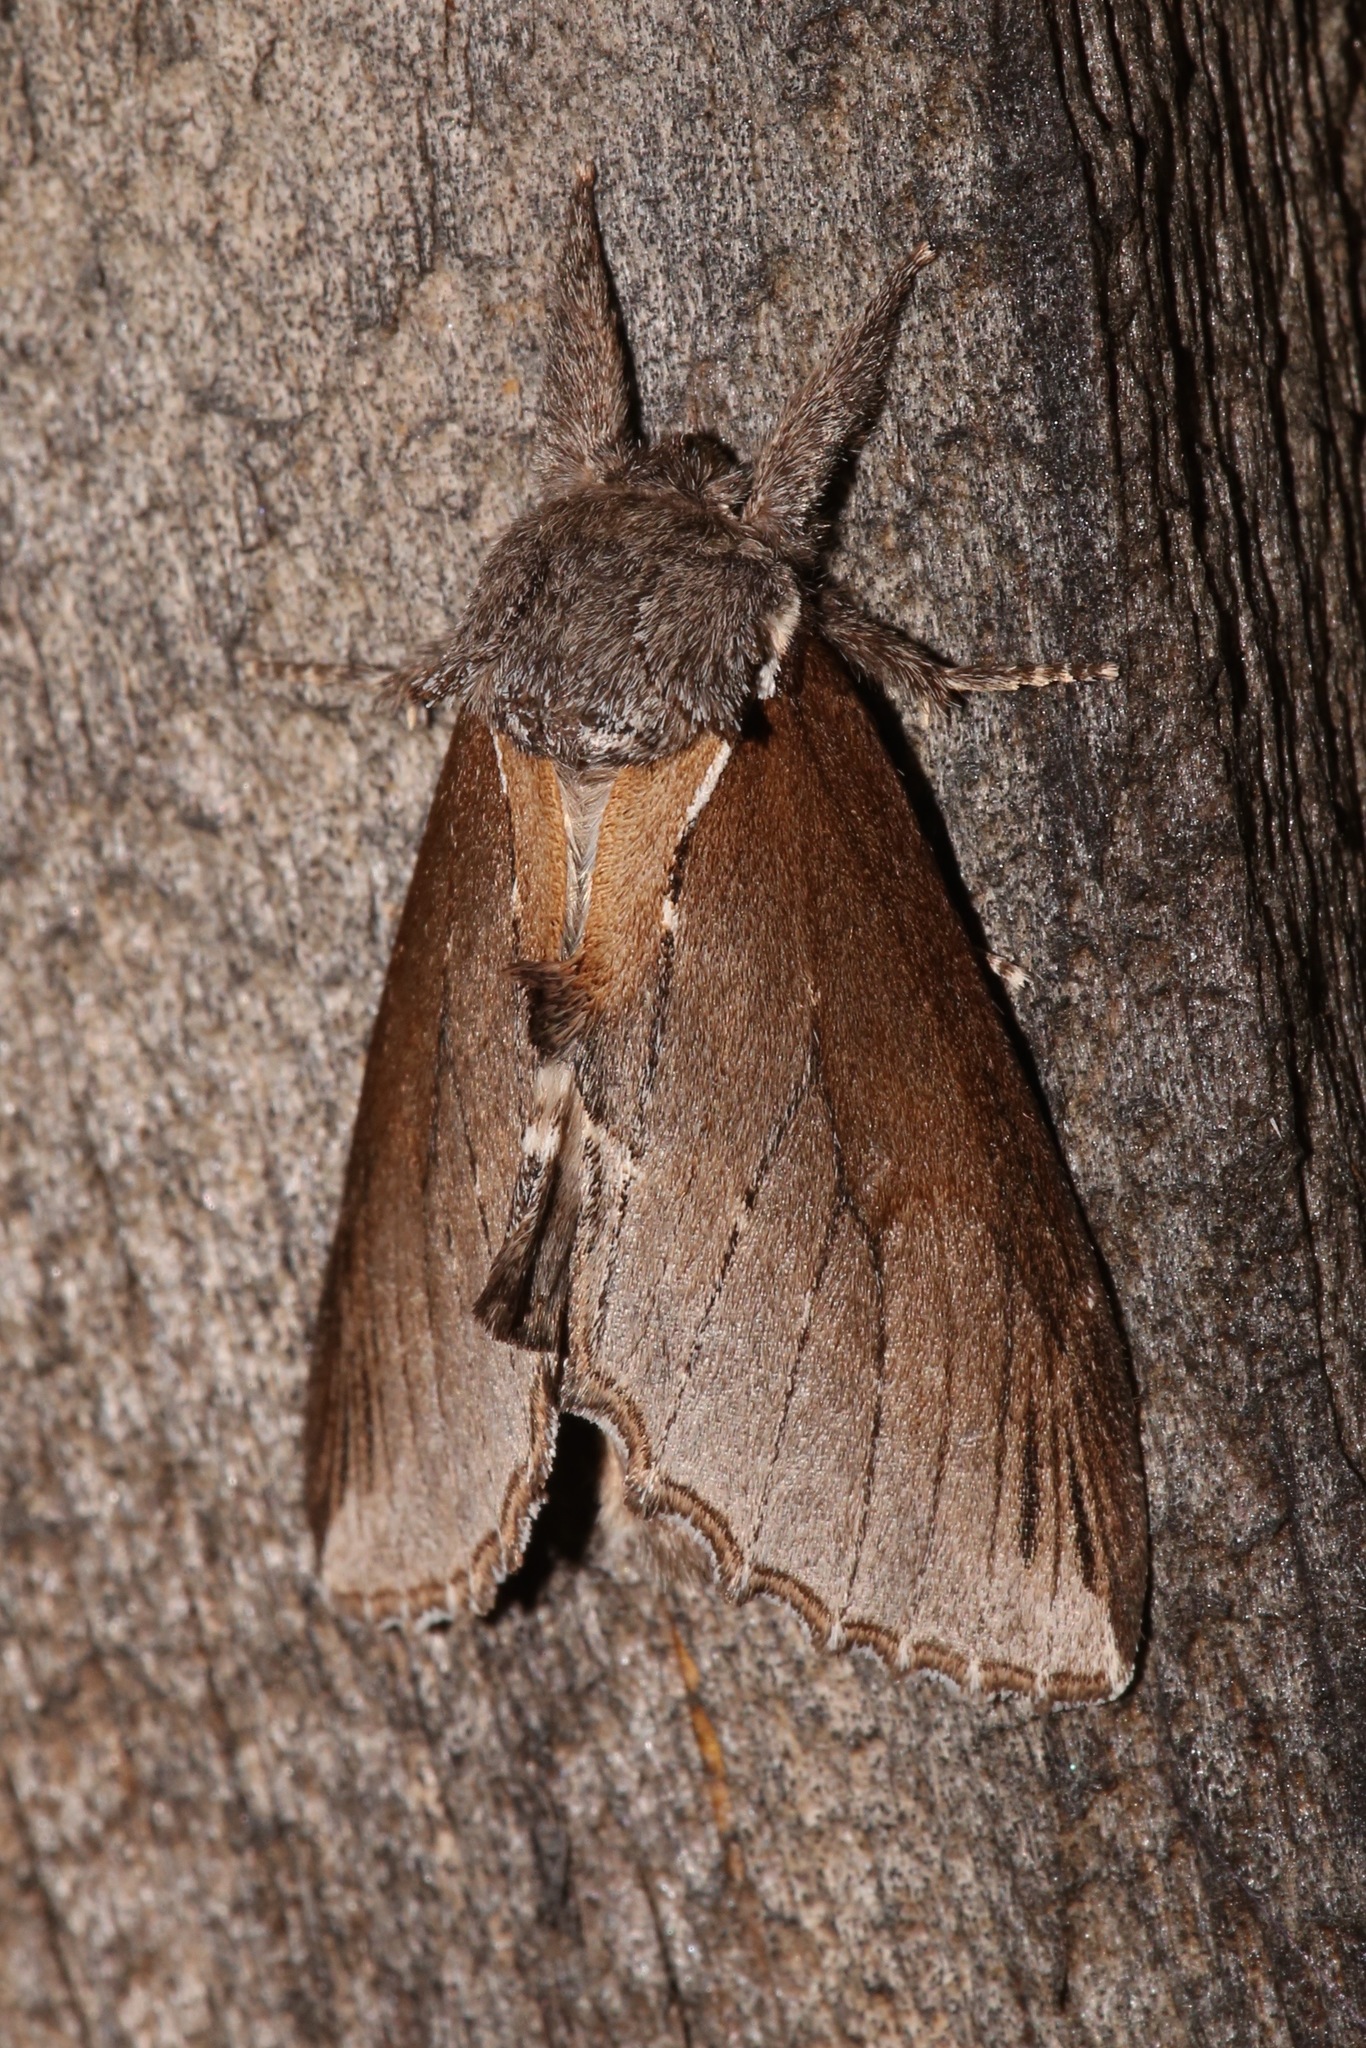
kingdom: Animalia
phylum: Arthropoda
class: Insecta
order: Lepidoptera
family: Notodontidae
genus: Pheosidea
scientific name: Pheosidea elegans
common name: Elegant prominent
